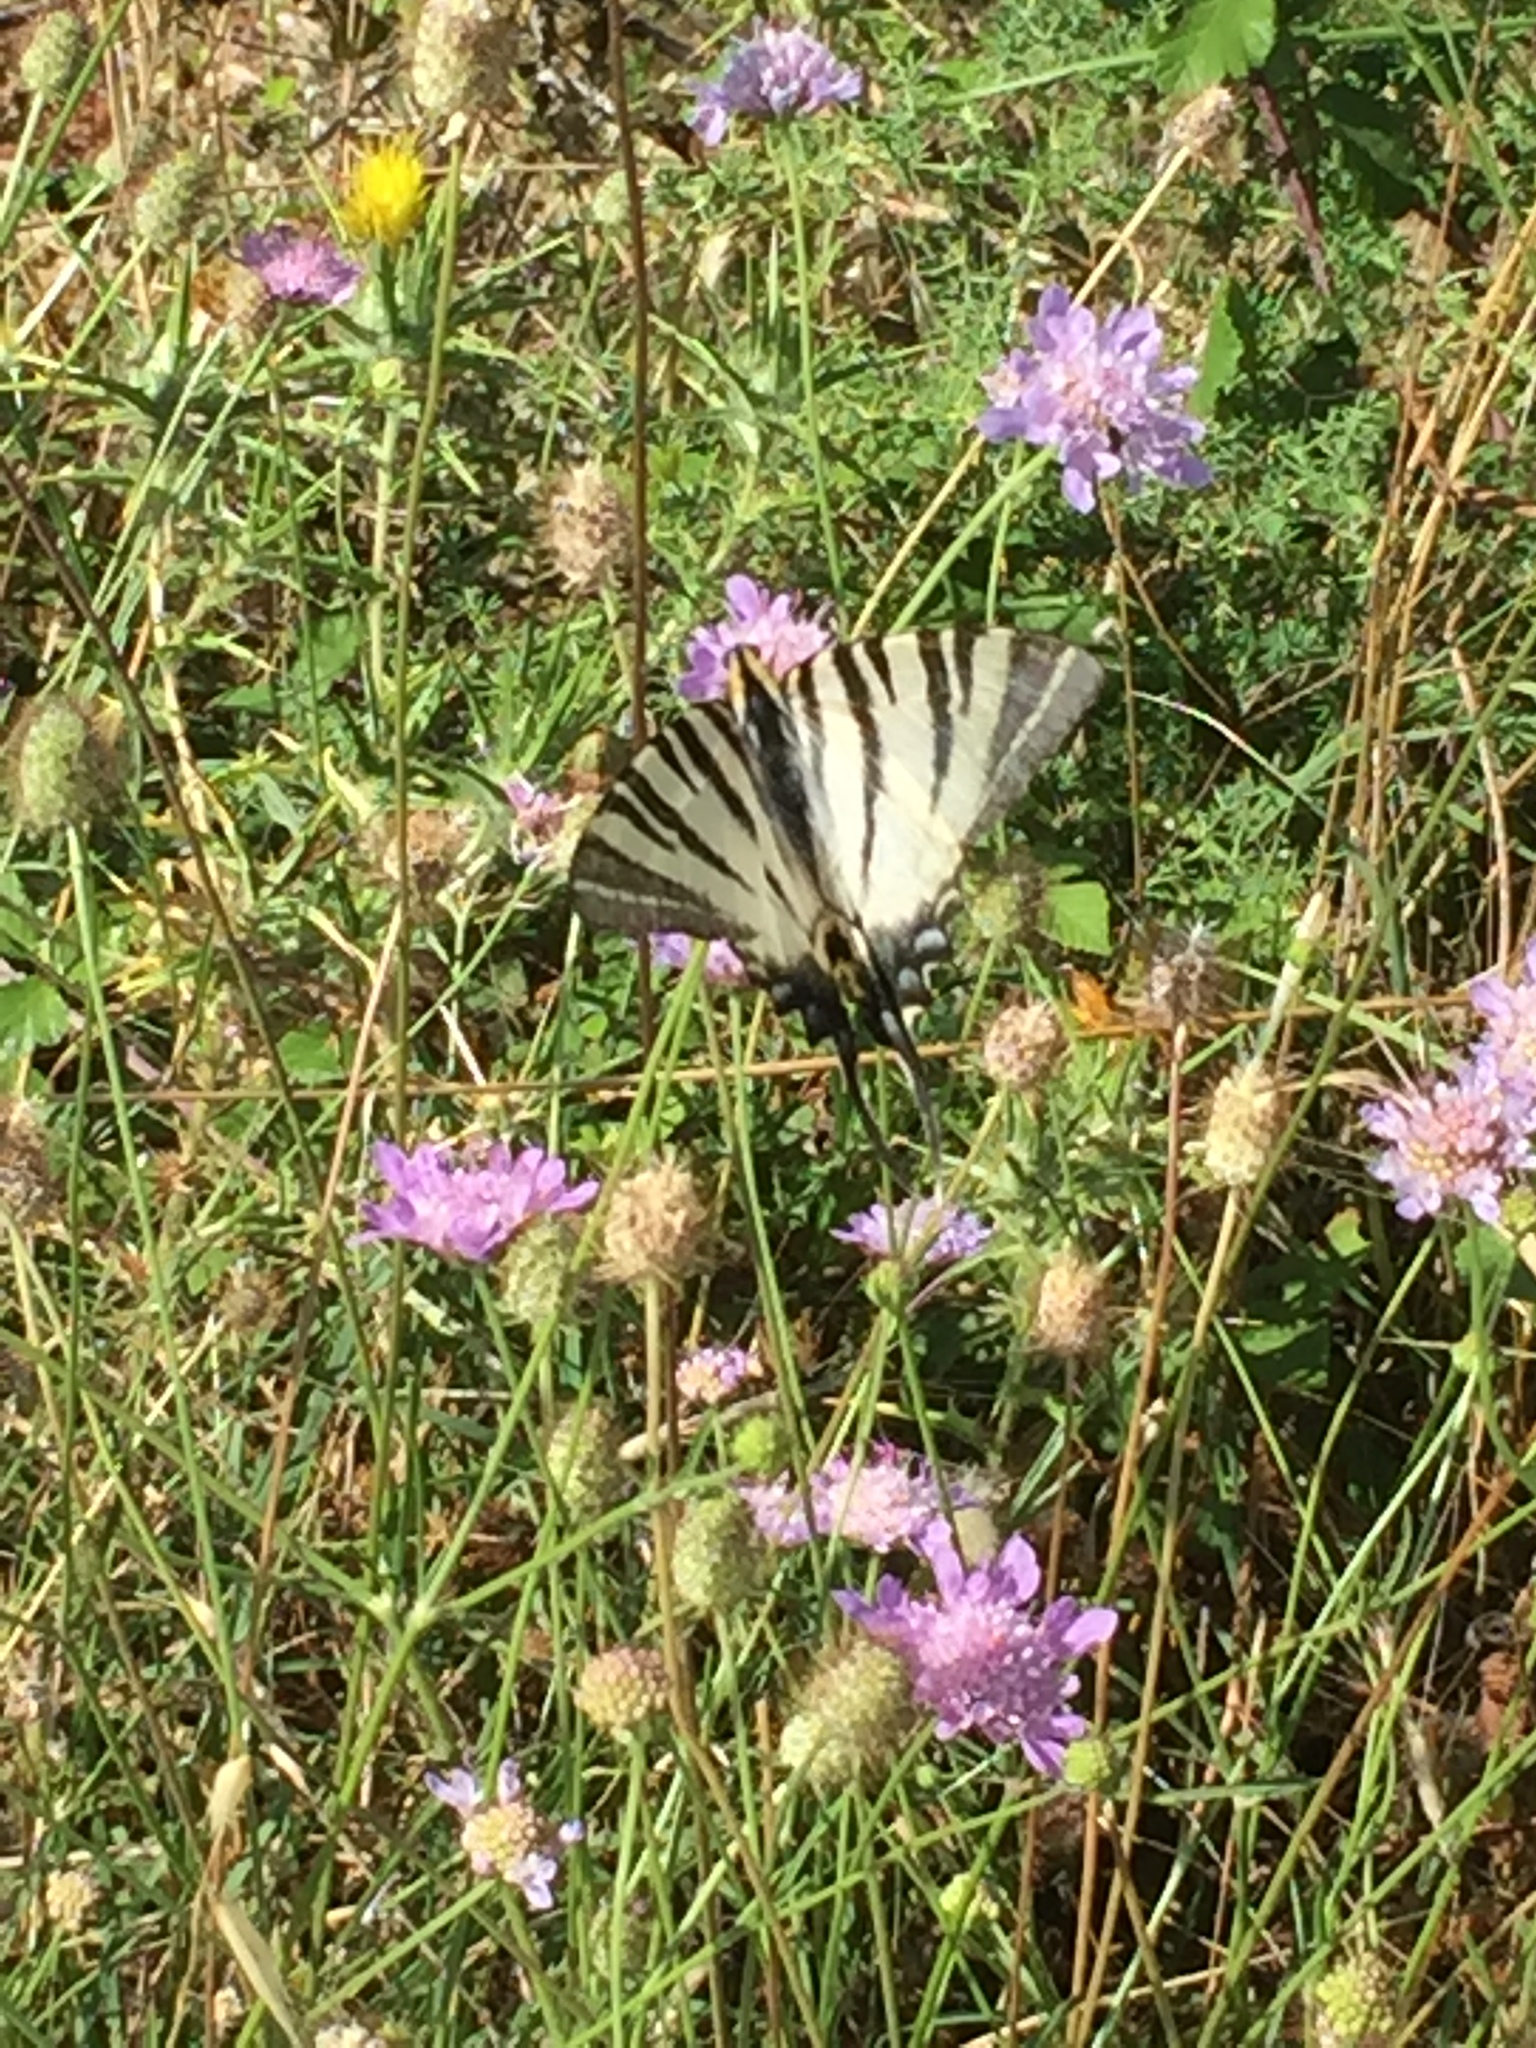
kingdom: Animalia
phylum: Arthropoda
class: Insecta
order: Lepidoptera
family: Papilionidae
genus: Iphiclides
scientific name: Iphiclides podalirius
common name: Scarce swallowtail
